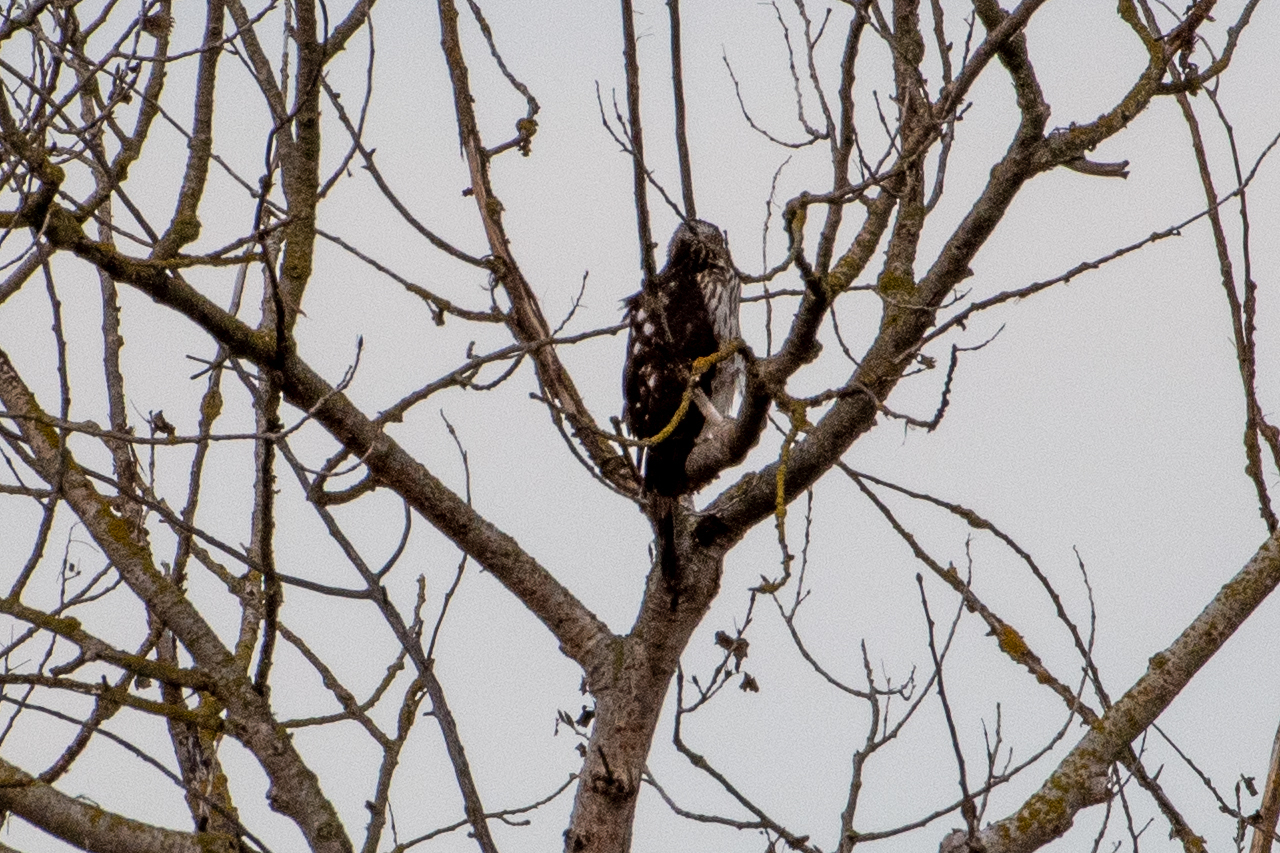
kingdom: Animalia
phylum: Chordata
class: Aves
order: Accipitriformes
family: Accipitridae
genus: Accipiter
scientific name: Accipiter cooperii
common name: Cooper's hawk
